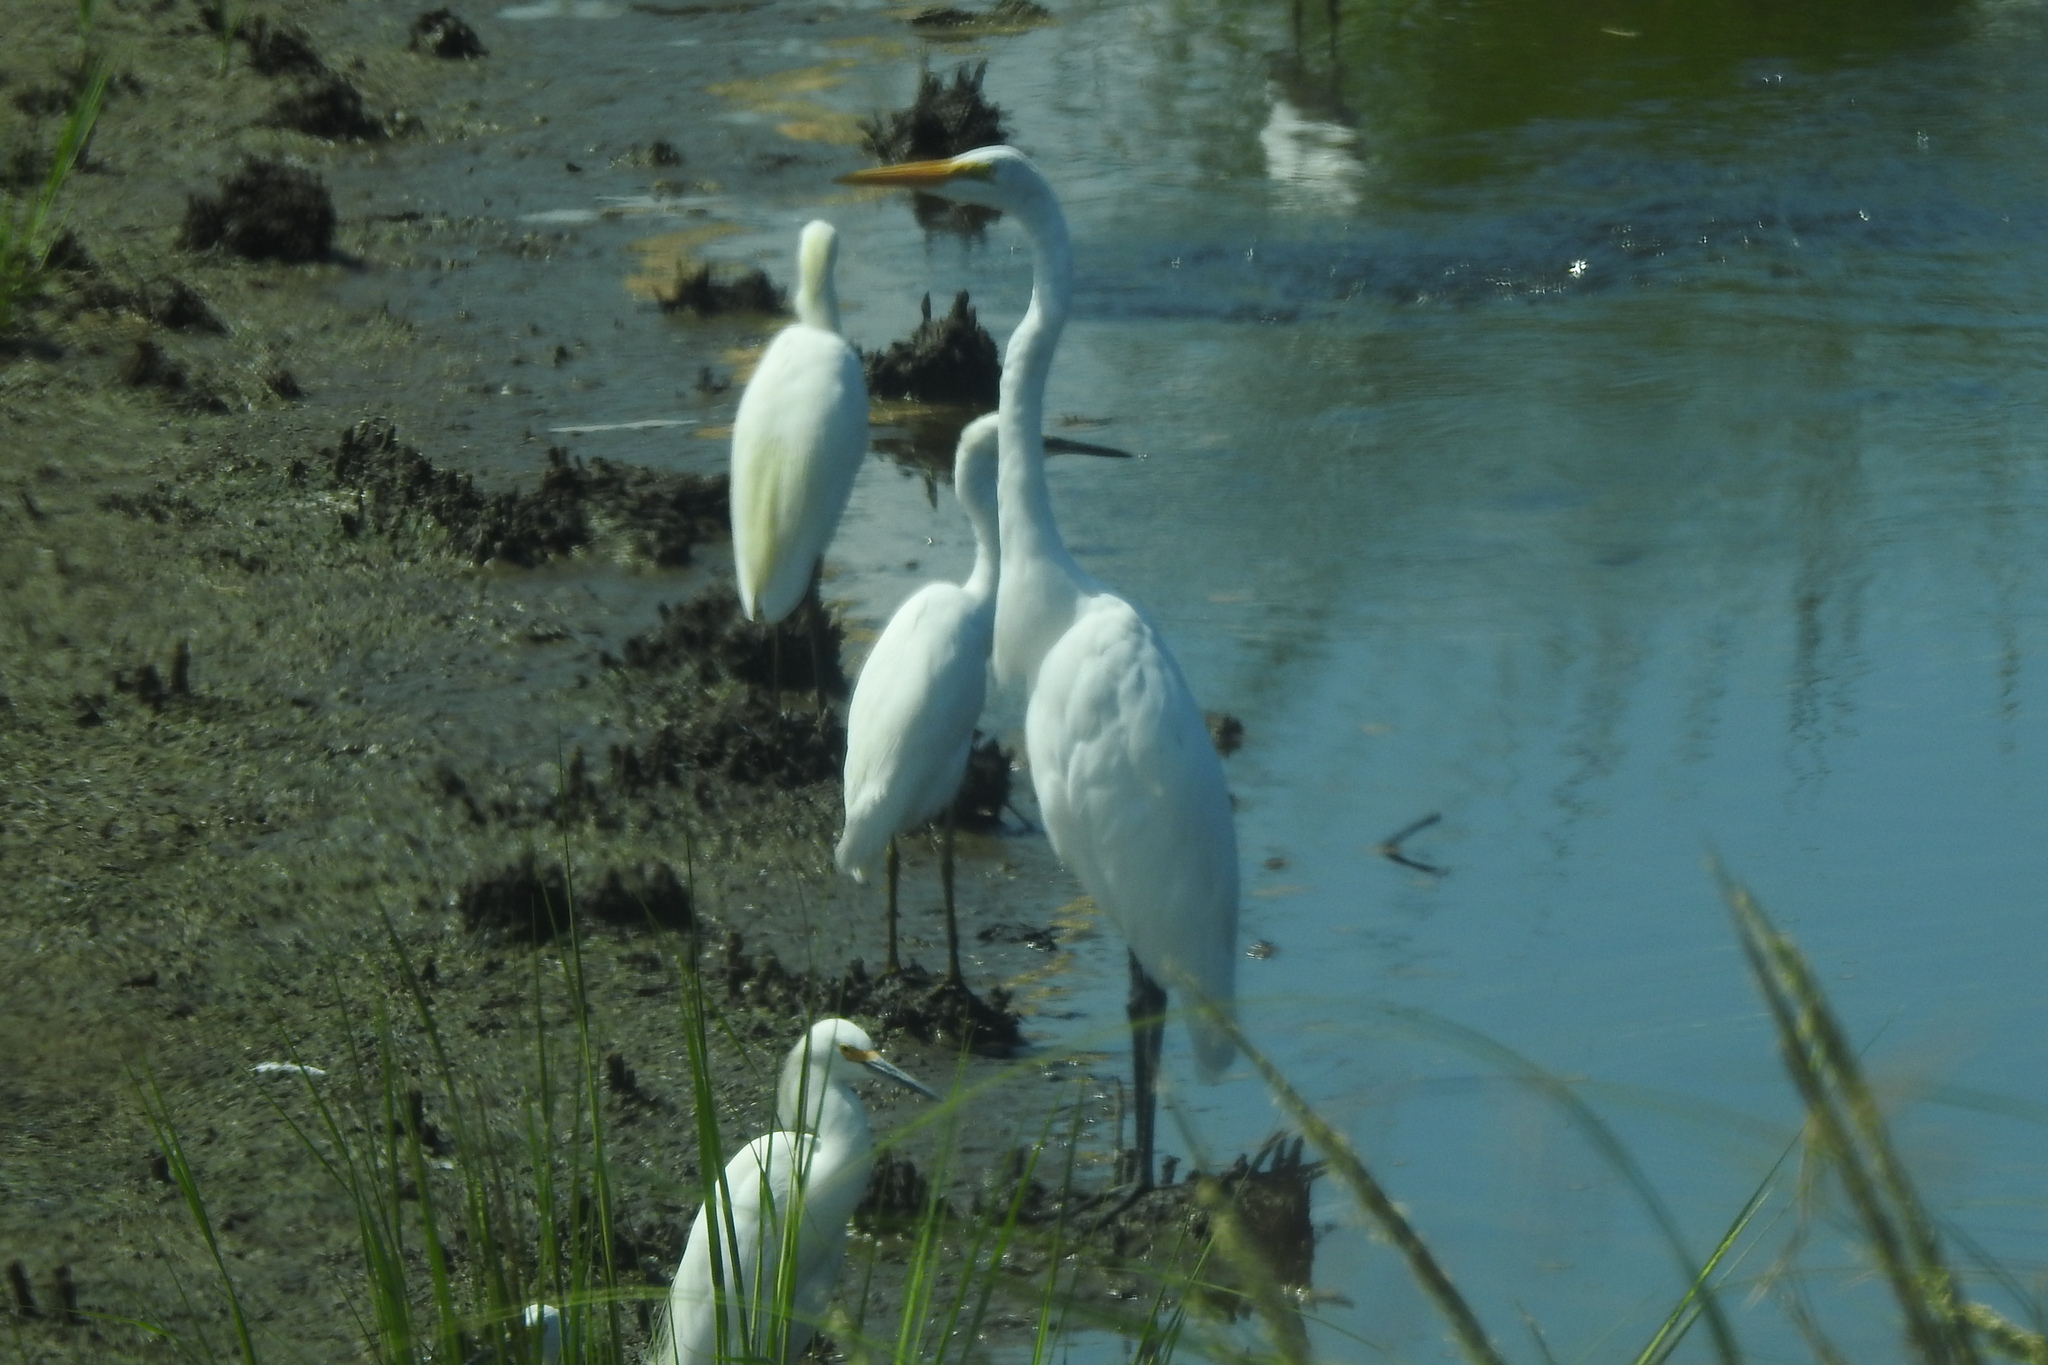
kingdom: Animalia
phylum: Chordata
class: Aves
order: Pelecaniformes
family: Ardeidae
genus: Ardea
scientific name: Ardea alba
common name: Great egret
